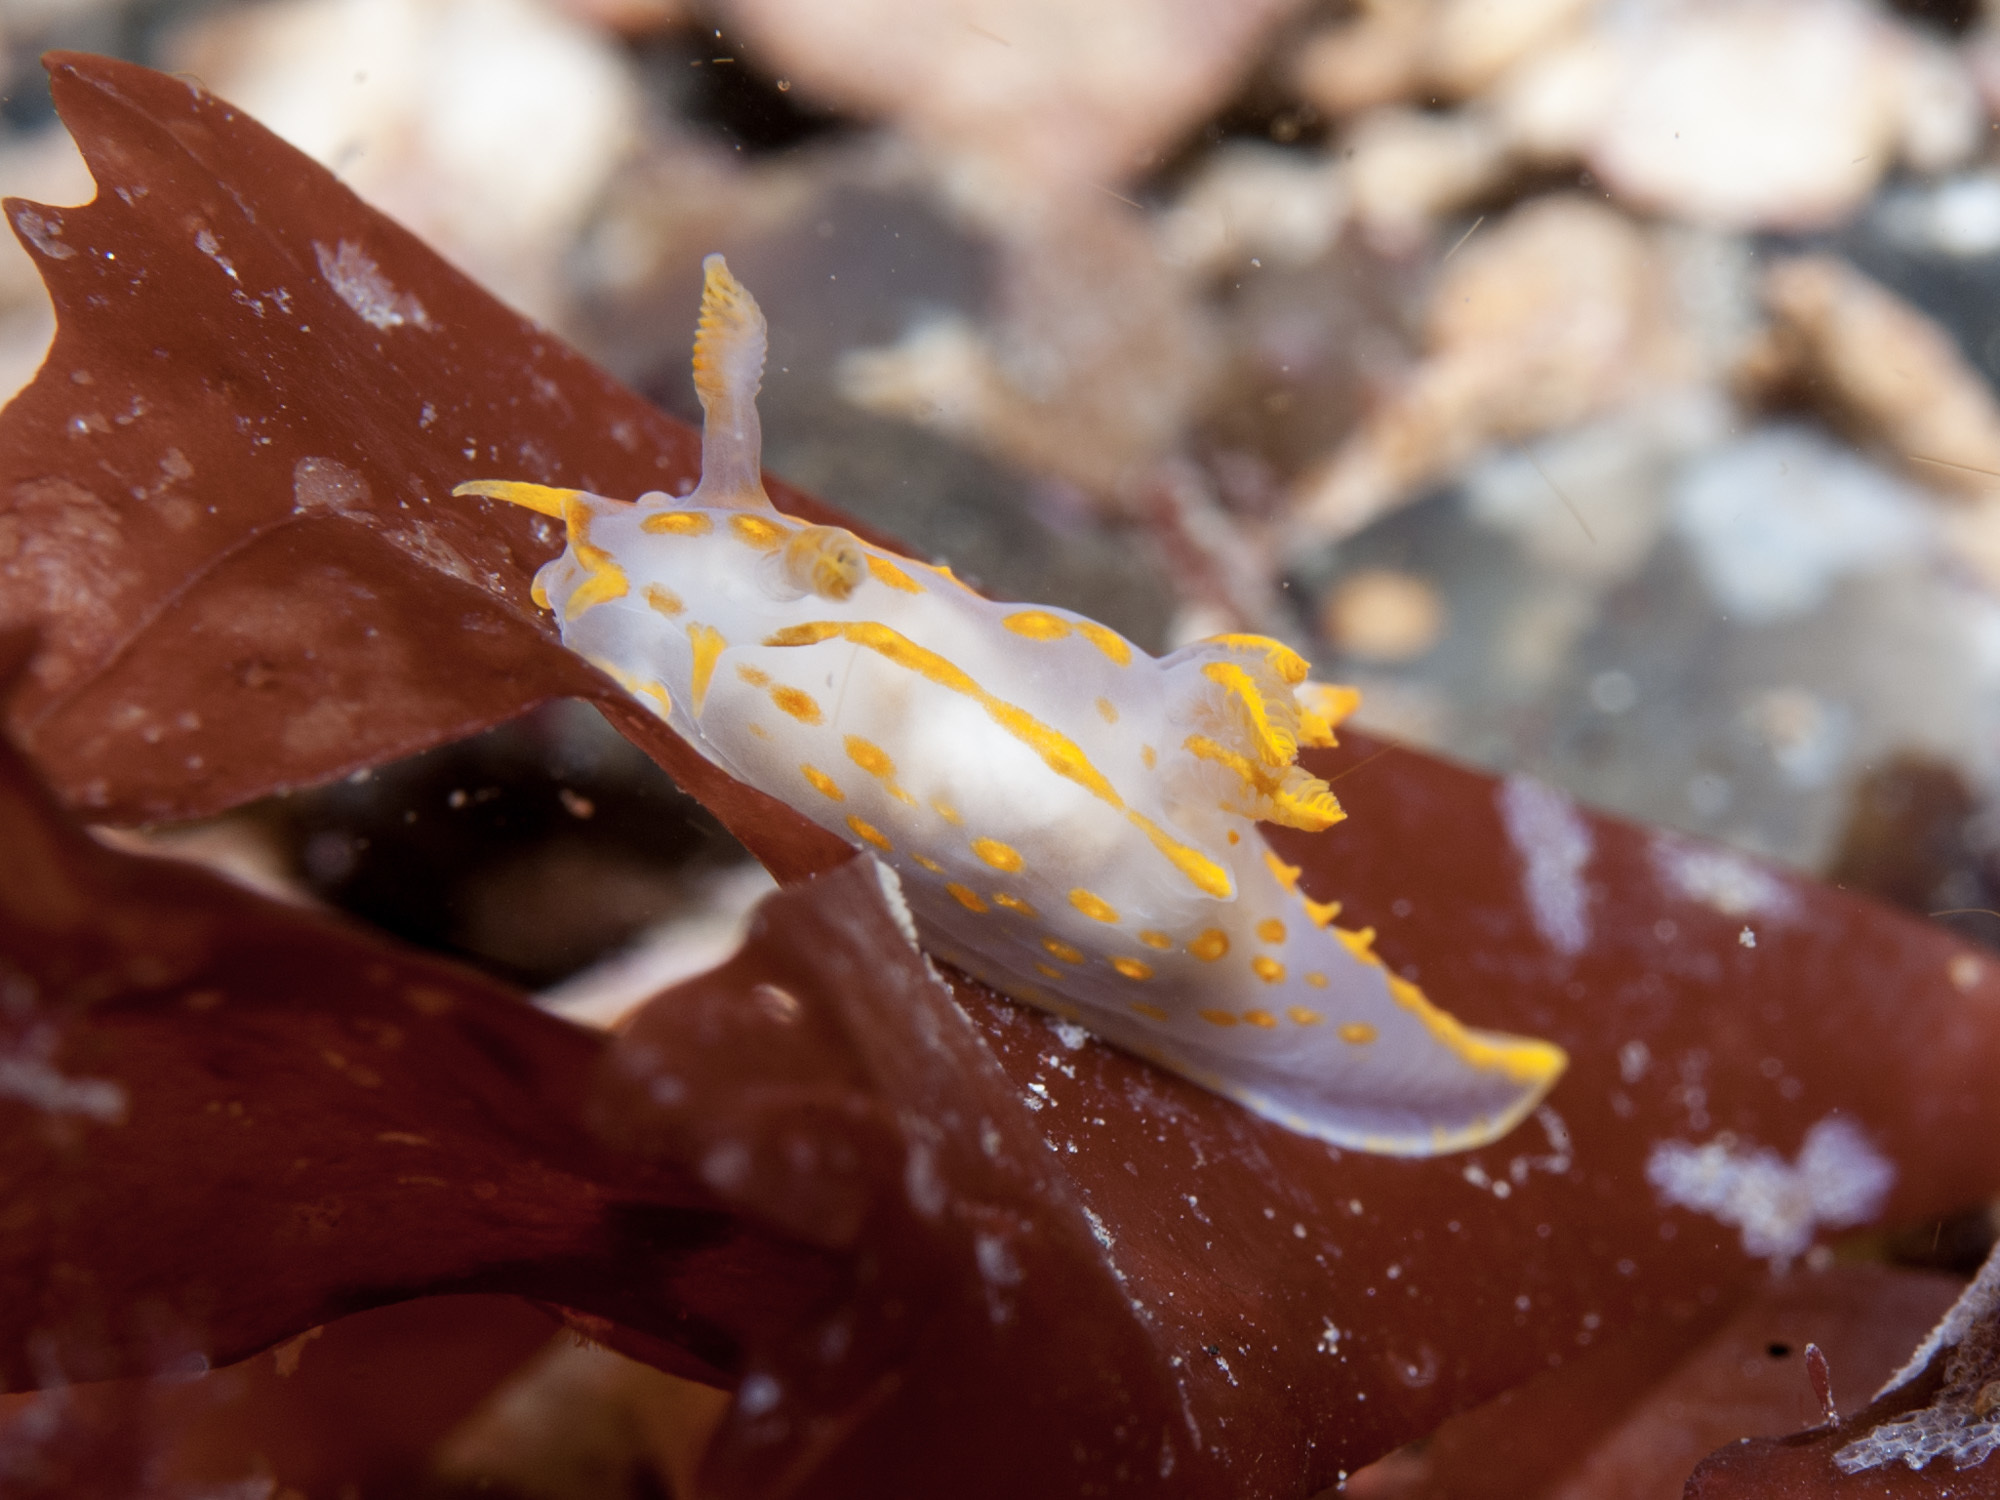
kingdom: Animalia
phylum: Mollusca
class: Gastropoda
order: Nudibranchia
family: Polyceridae
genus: Polycera
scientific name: Polycera quadrilineata
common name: Four-striped polycera
